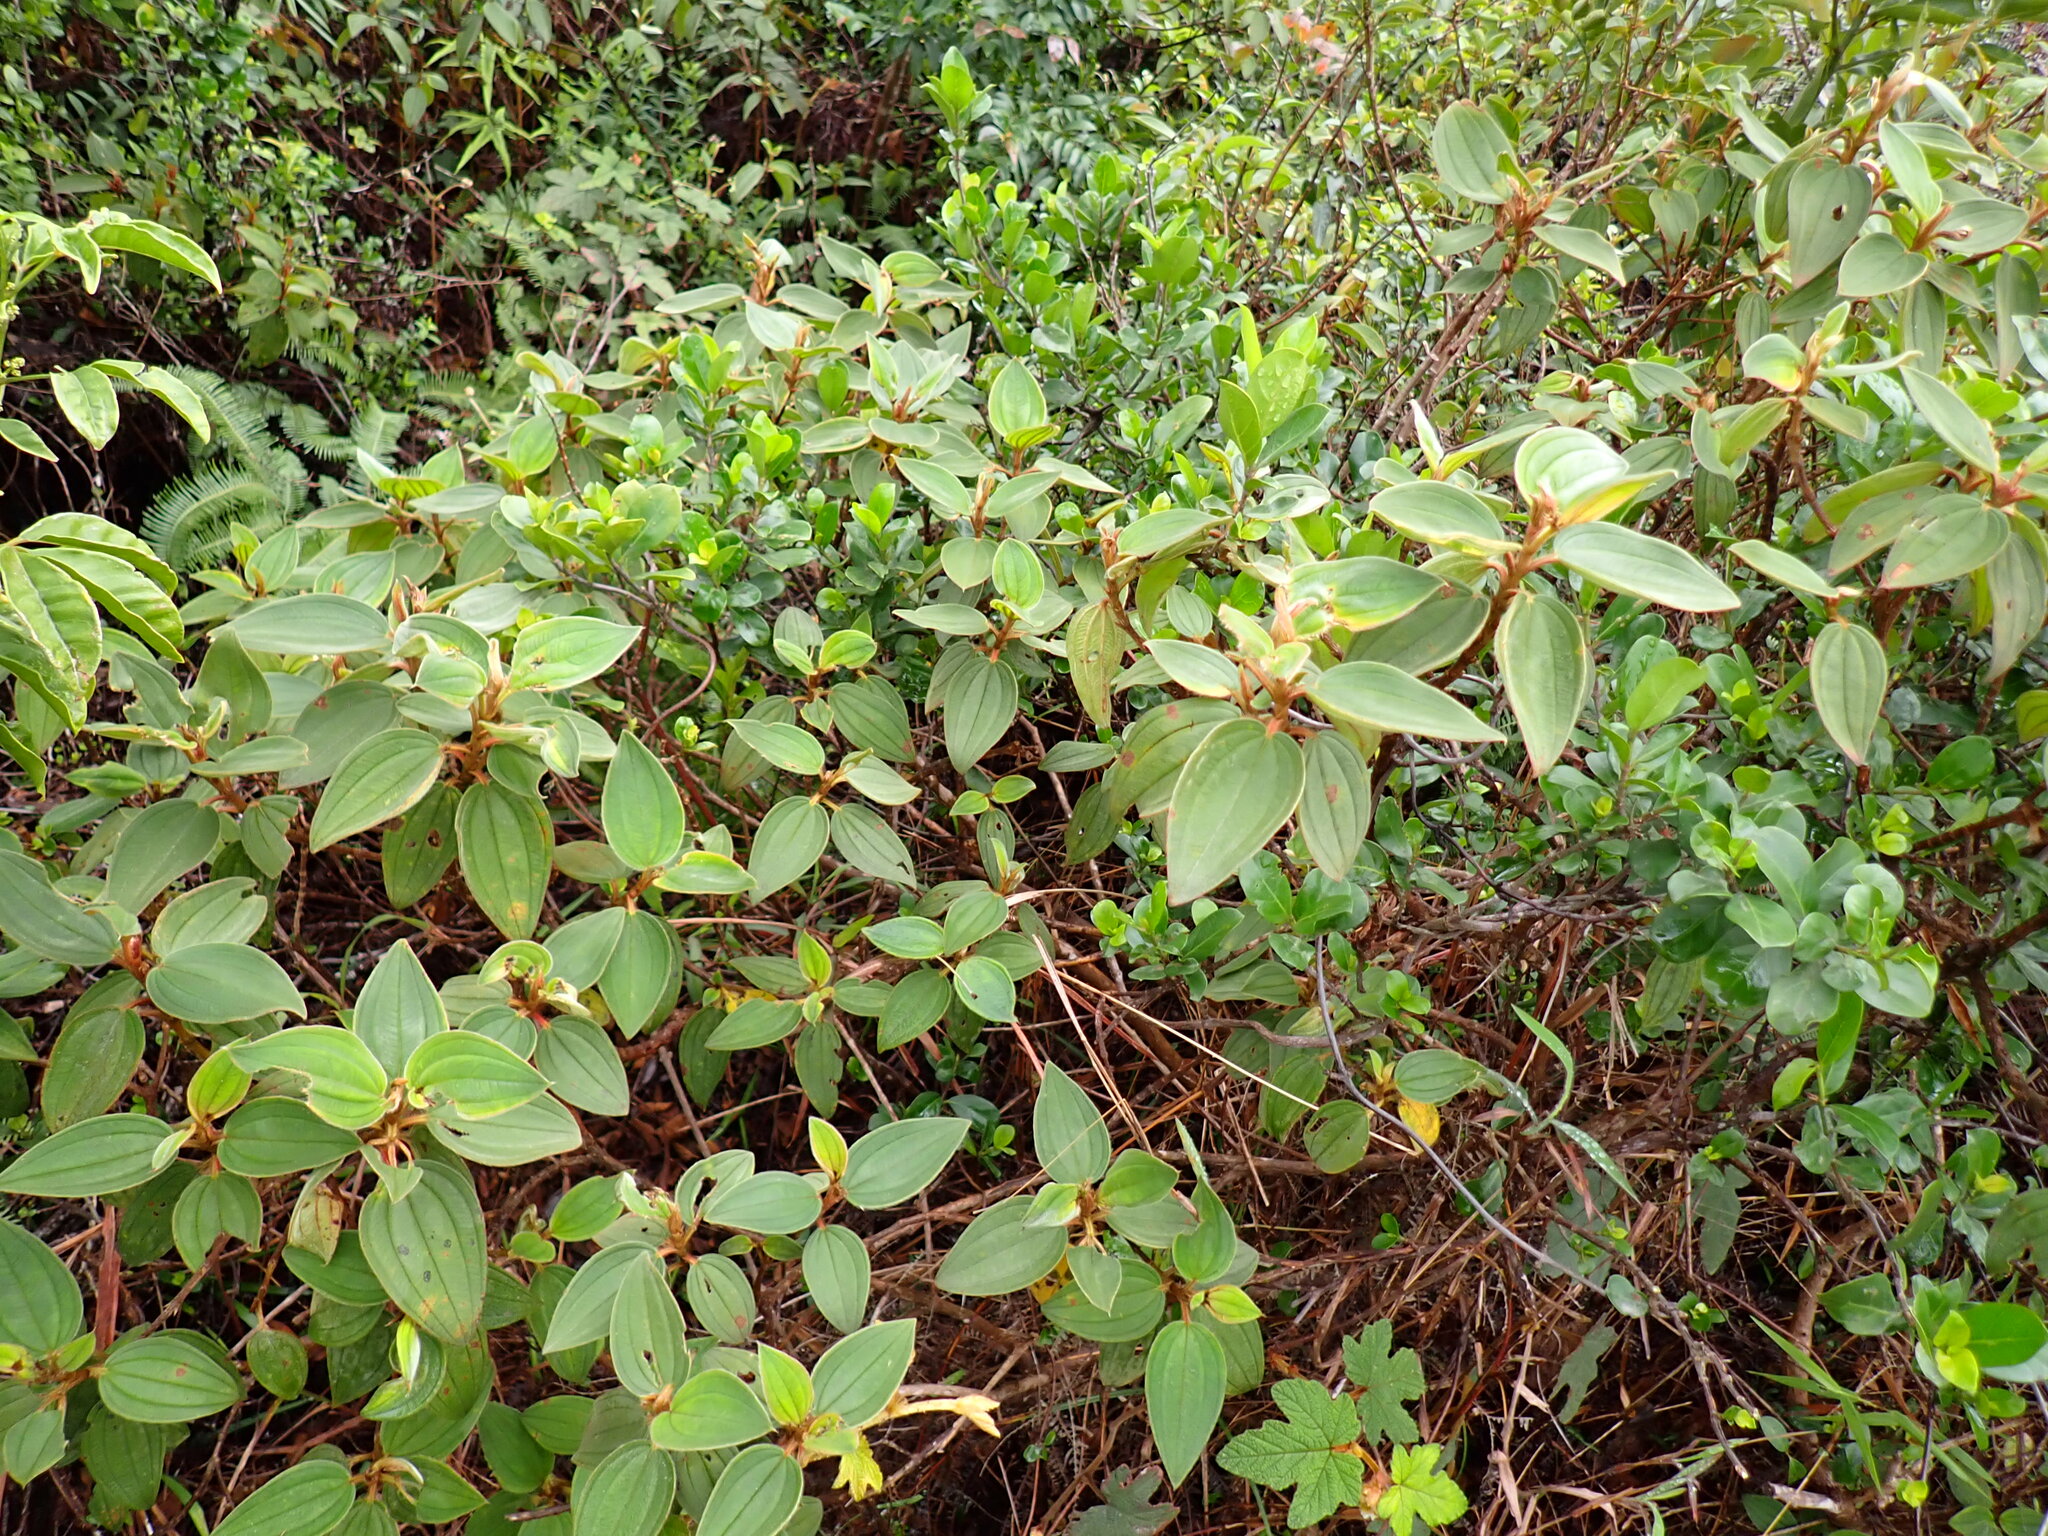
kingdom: Plantae
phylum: Tracheophyta
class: Magnoliopsida
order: Myrtales
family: Melastomataceae
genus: Melastoma
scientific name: Melastoma malabathricum
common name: Indian-rhododendron
